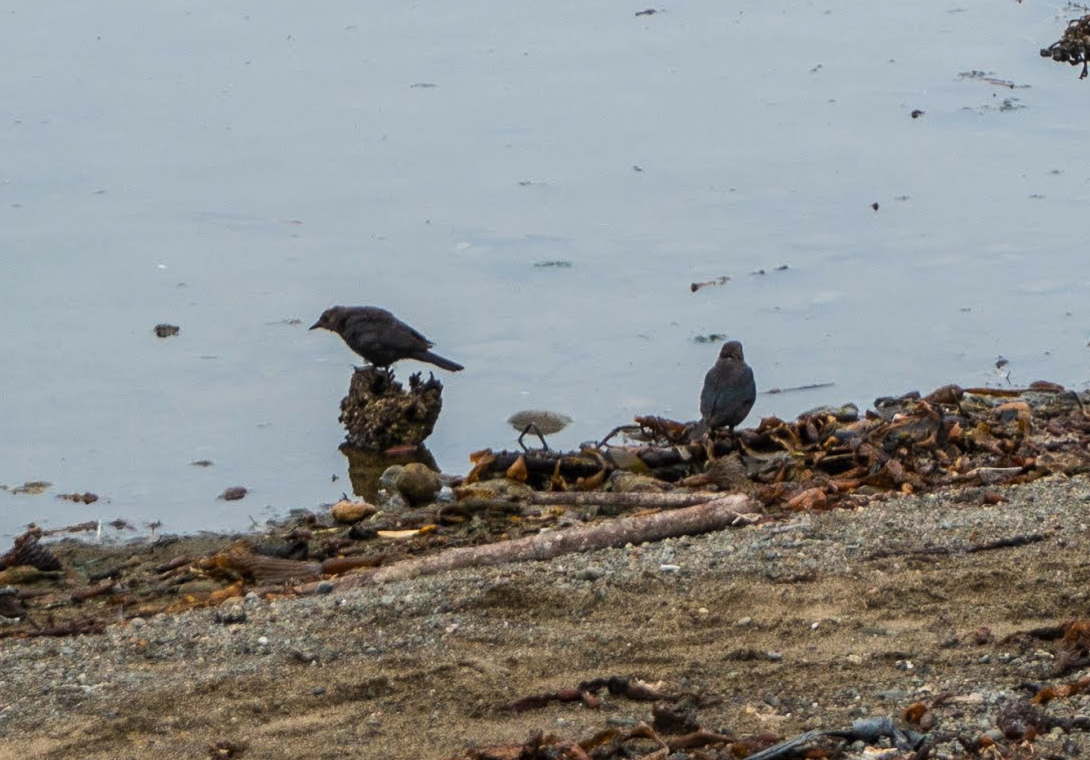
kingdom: Animalia
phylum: Chordata
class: Aves
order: Passeriformes
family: Icteridae
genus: Euphagus
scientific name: Euphagus cyanocephalus
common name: Brewer's blackbird
